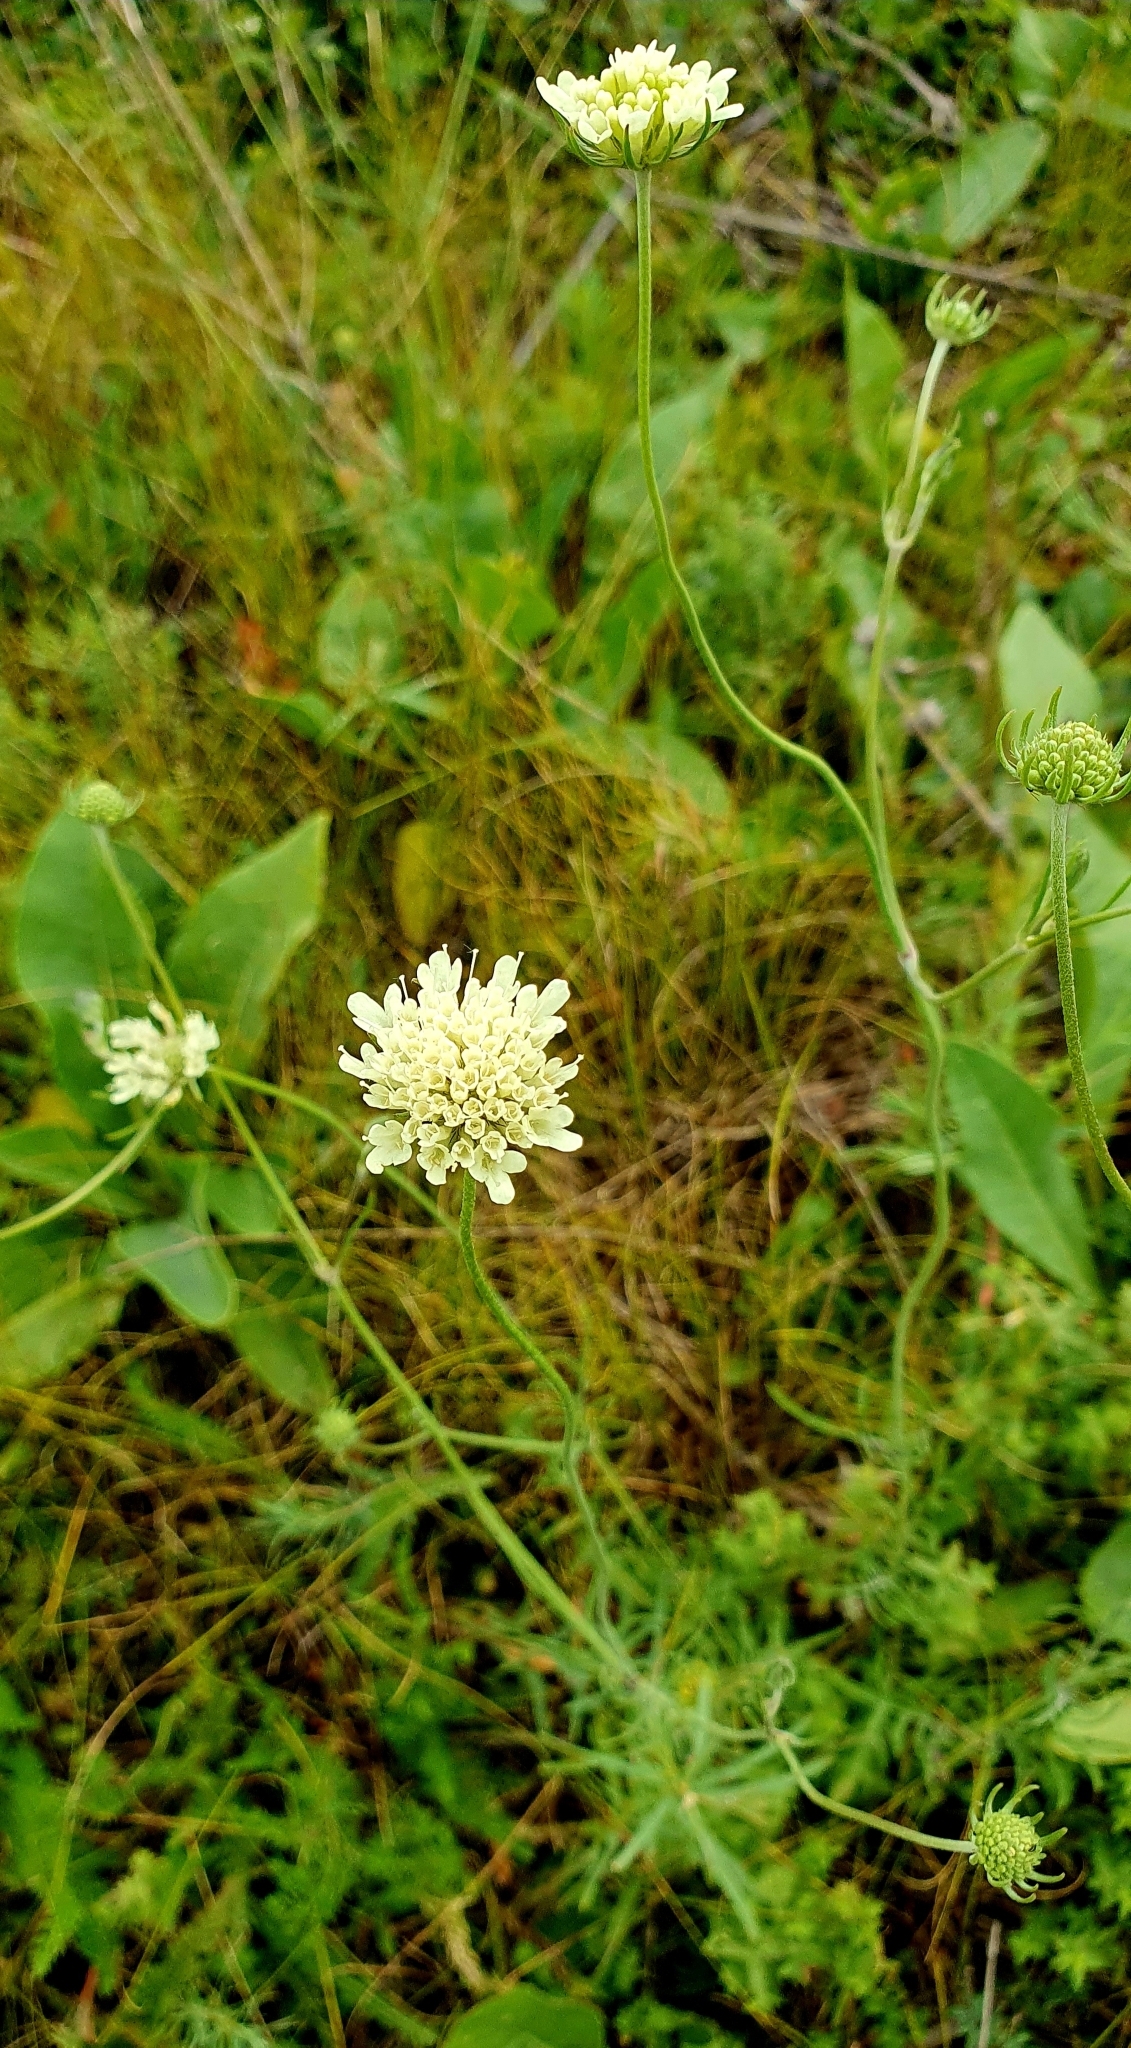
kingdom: Plantae
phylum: Tracheophyta
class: Magnoliopsida
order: Dipsacales
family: Caprifoliaceae
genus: Scabiosa
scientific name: Scabiosa ochroleuca
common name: Cream pincushions
